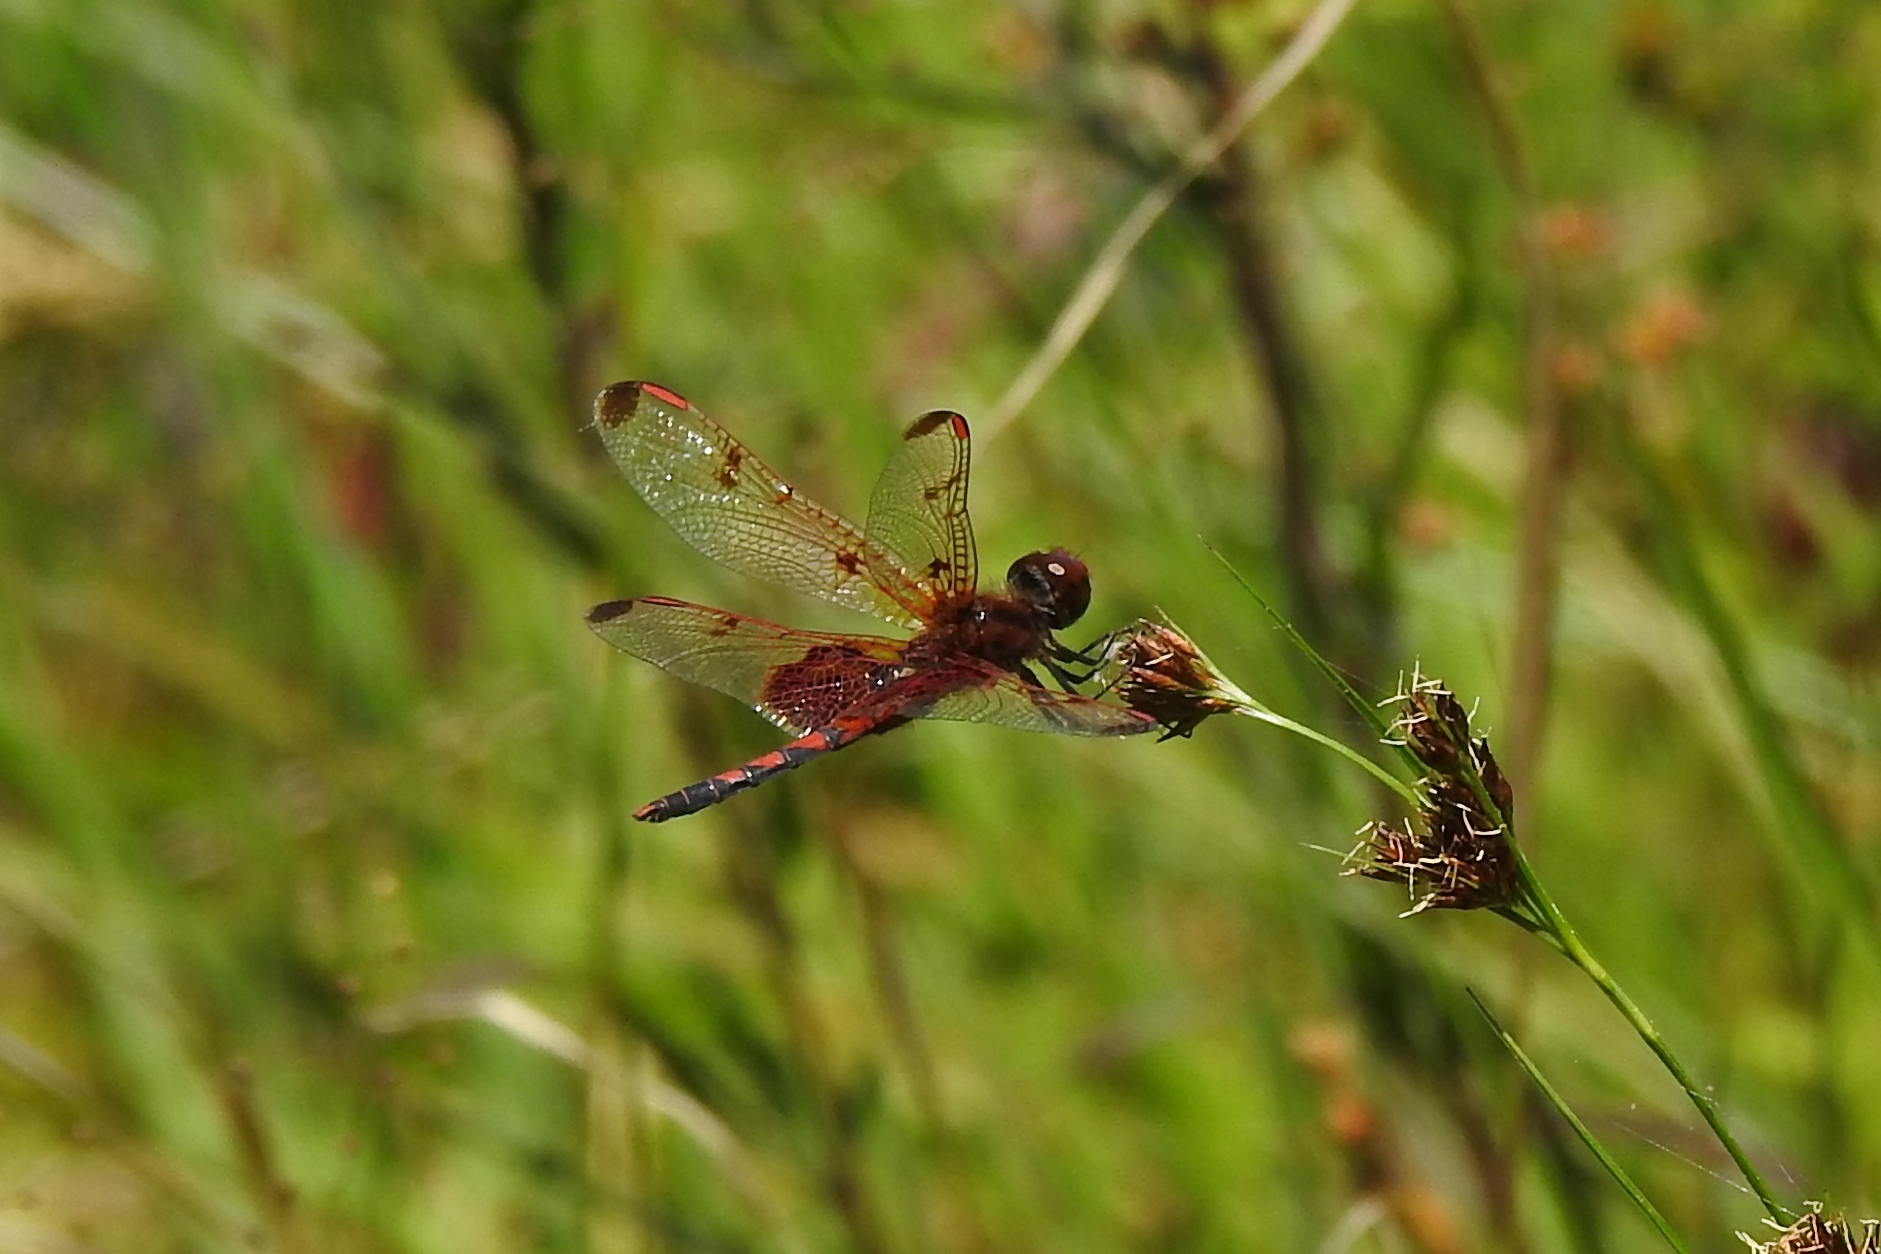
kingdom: Animalia
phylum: Arthropoda
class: Insecta
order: Odonata
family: Libellulidae
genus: Celithemis
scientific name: Celithemis elisa
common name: Calico pennant
